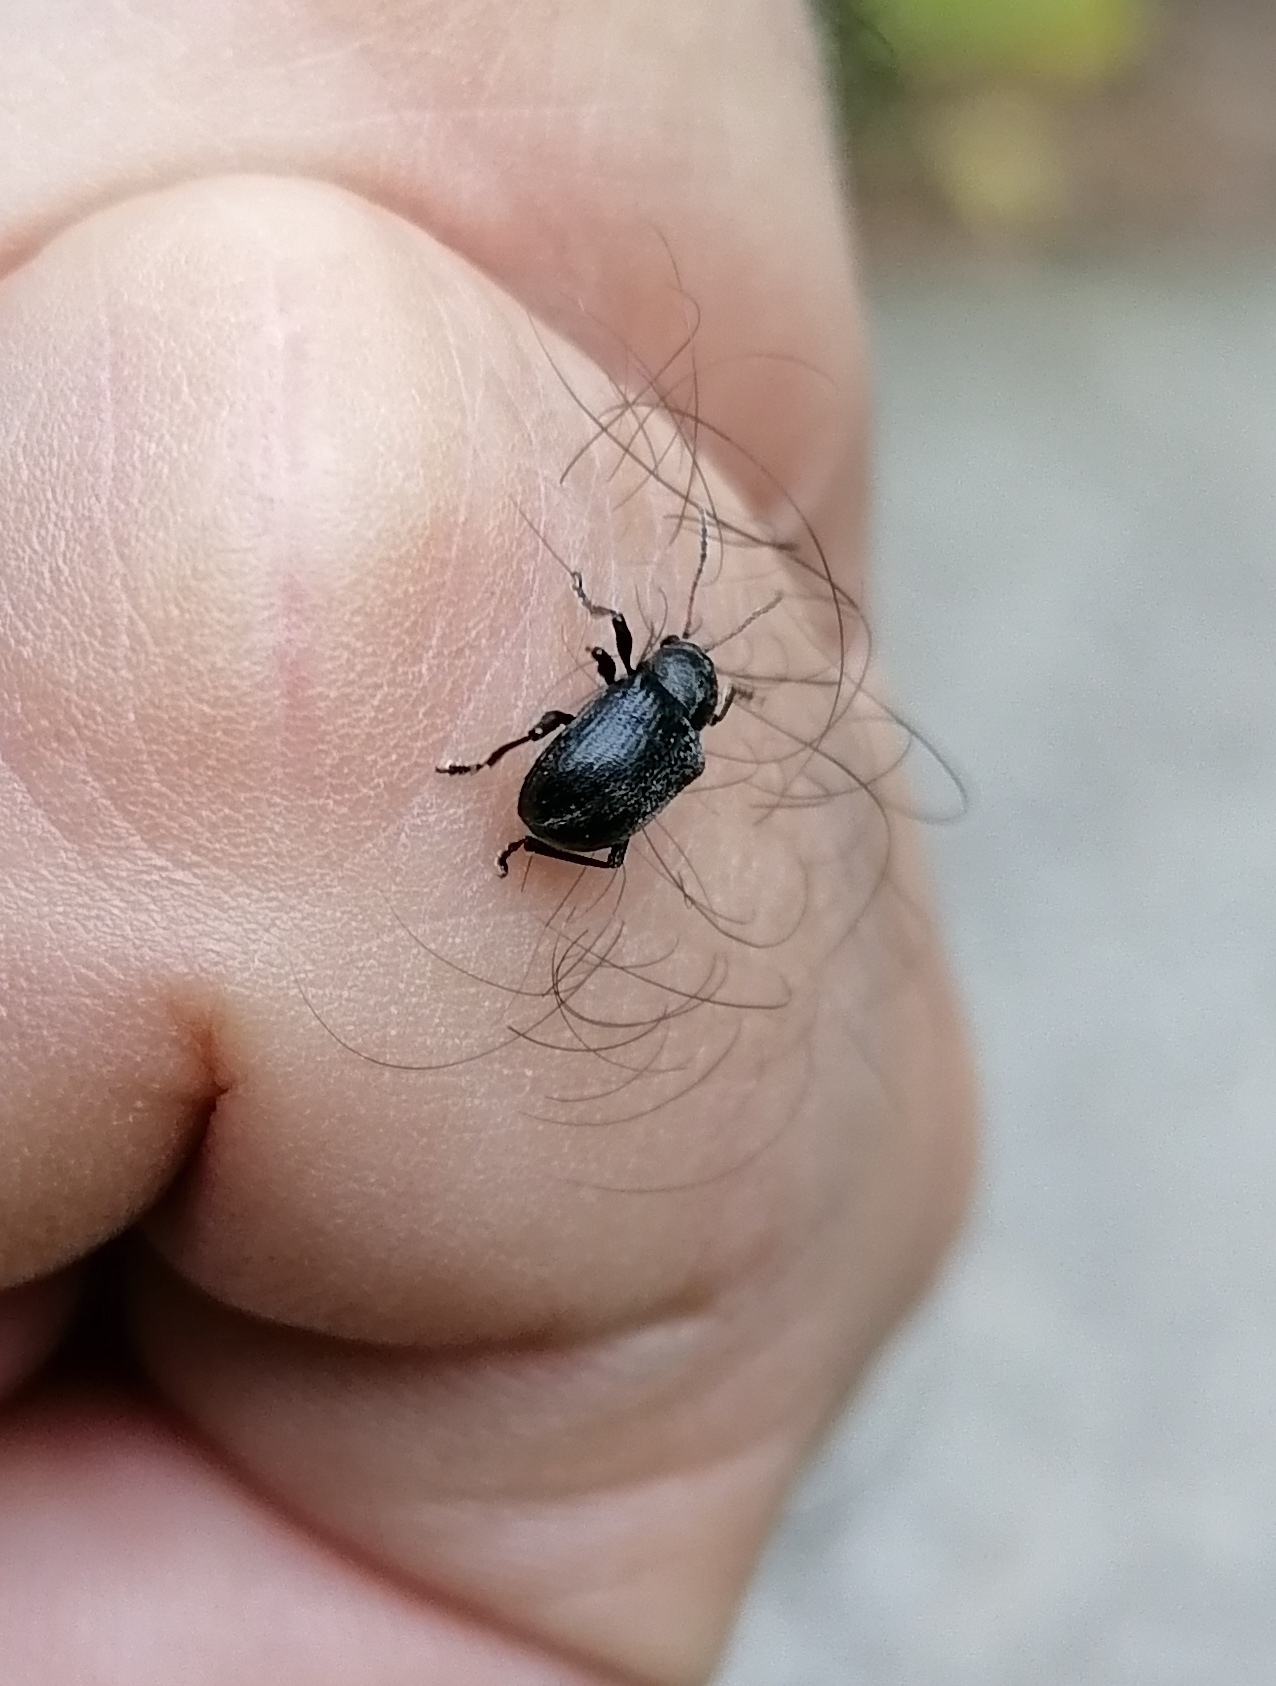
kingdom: Animalia
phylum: Arthropoda
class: Insecta
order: Coleoptera
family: Chrysomelidae
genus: Bromius
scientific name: Bromius obscurus
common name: Western grape rootworm
